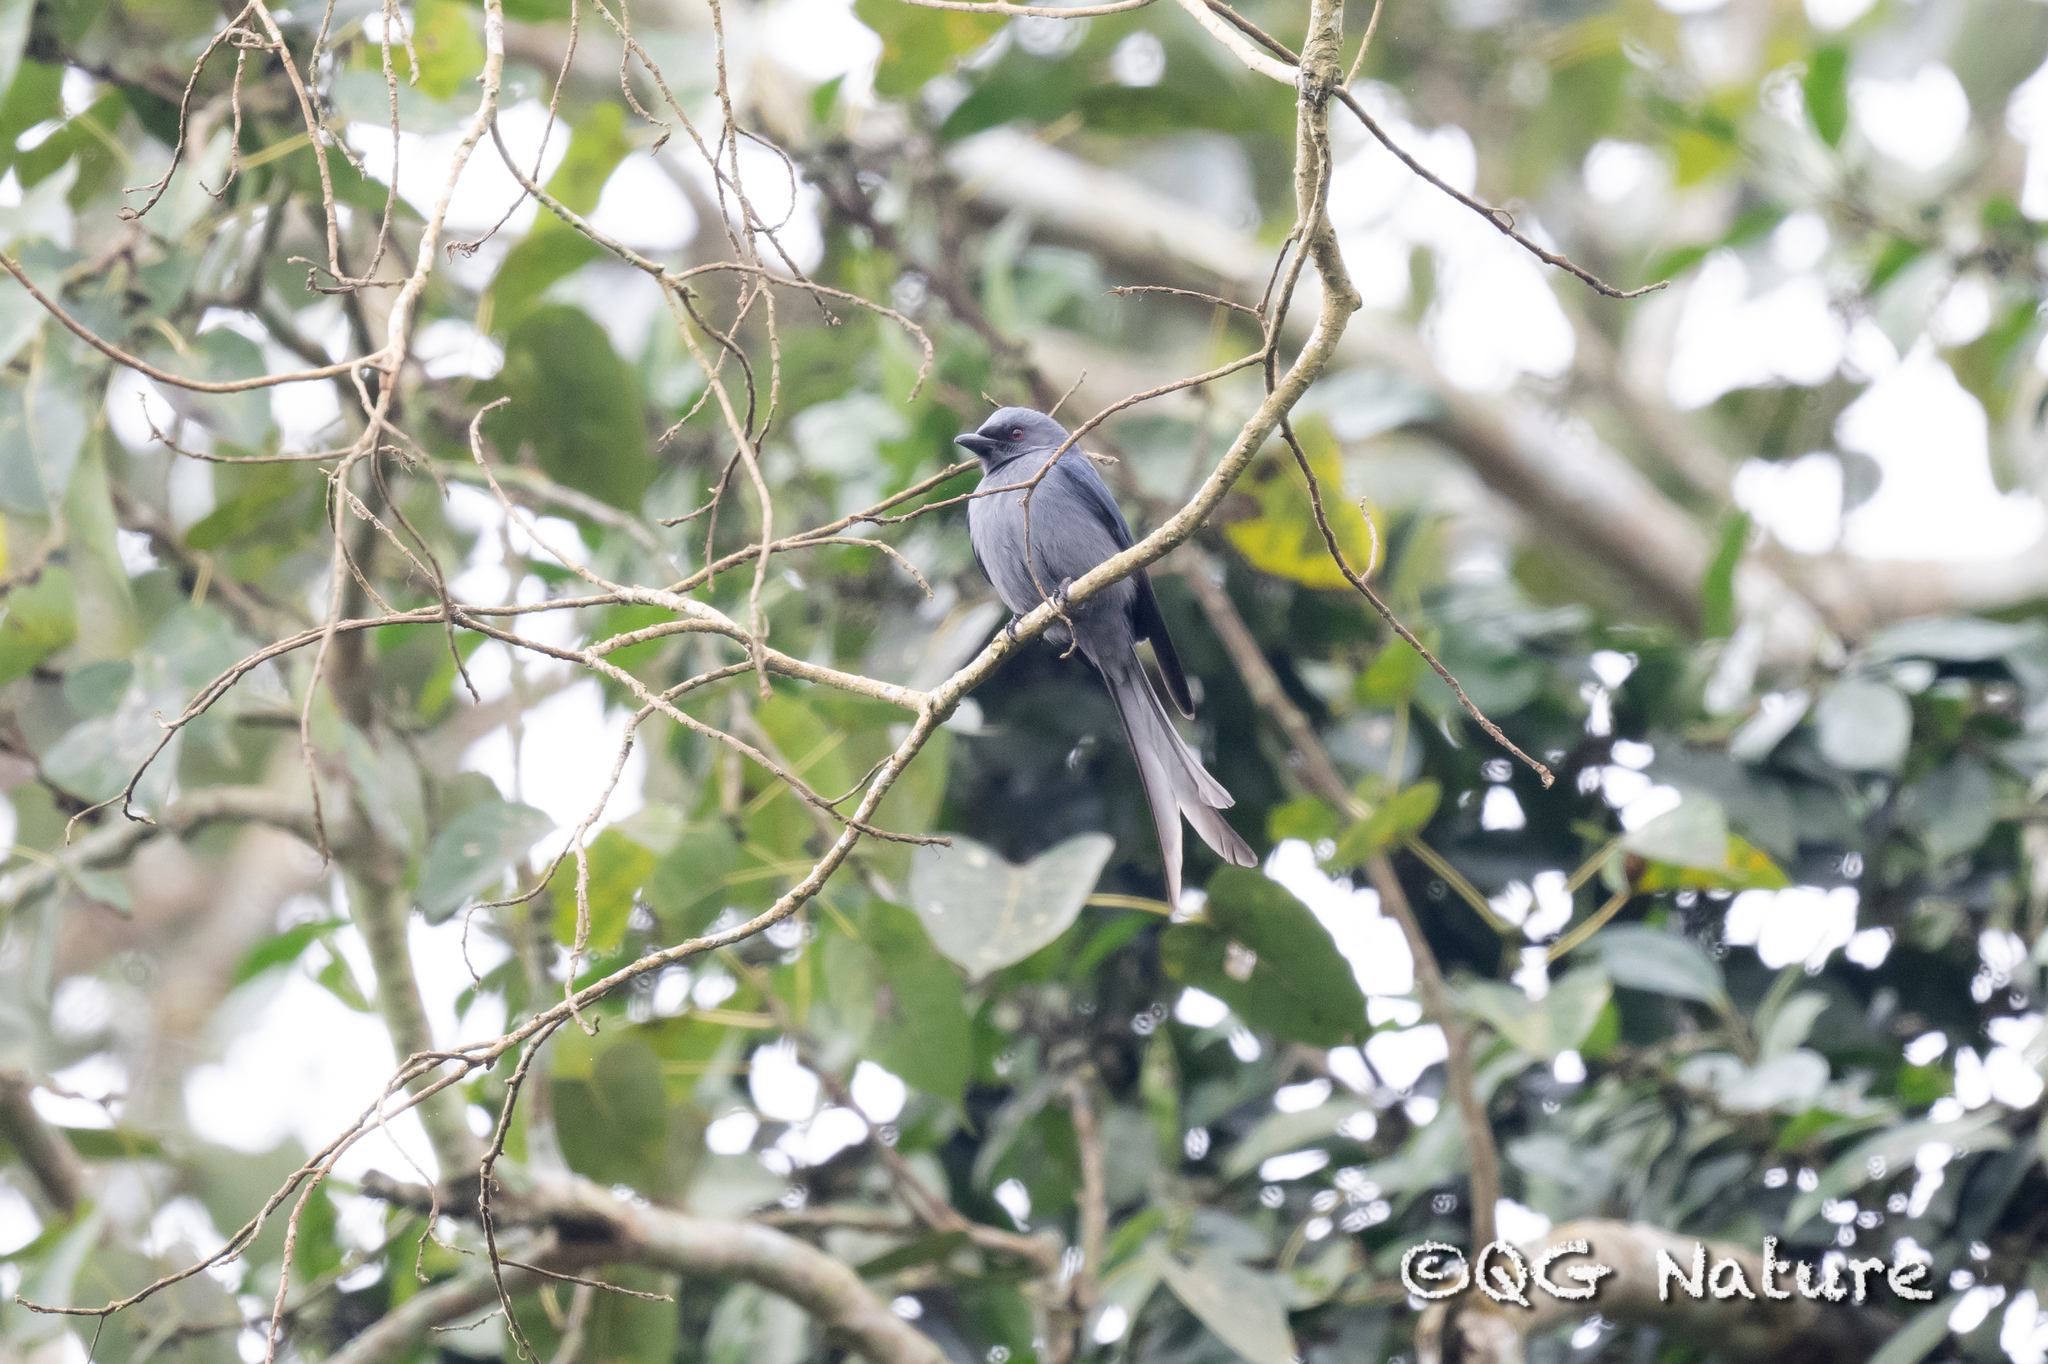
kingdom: Animalia
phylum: Chordata
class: Aves
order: Passeriformes
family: Dicruridae
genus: Dicrurus
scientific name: Dicrurus leucophaeus
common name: Ashy drongo
